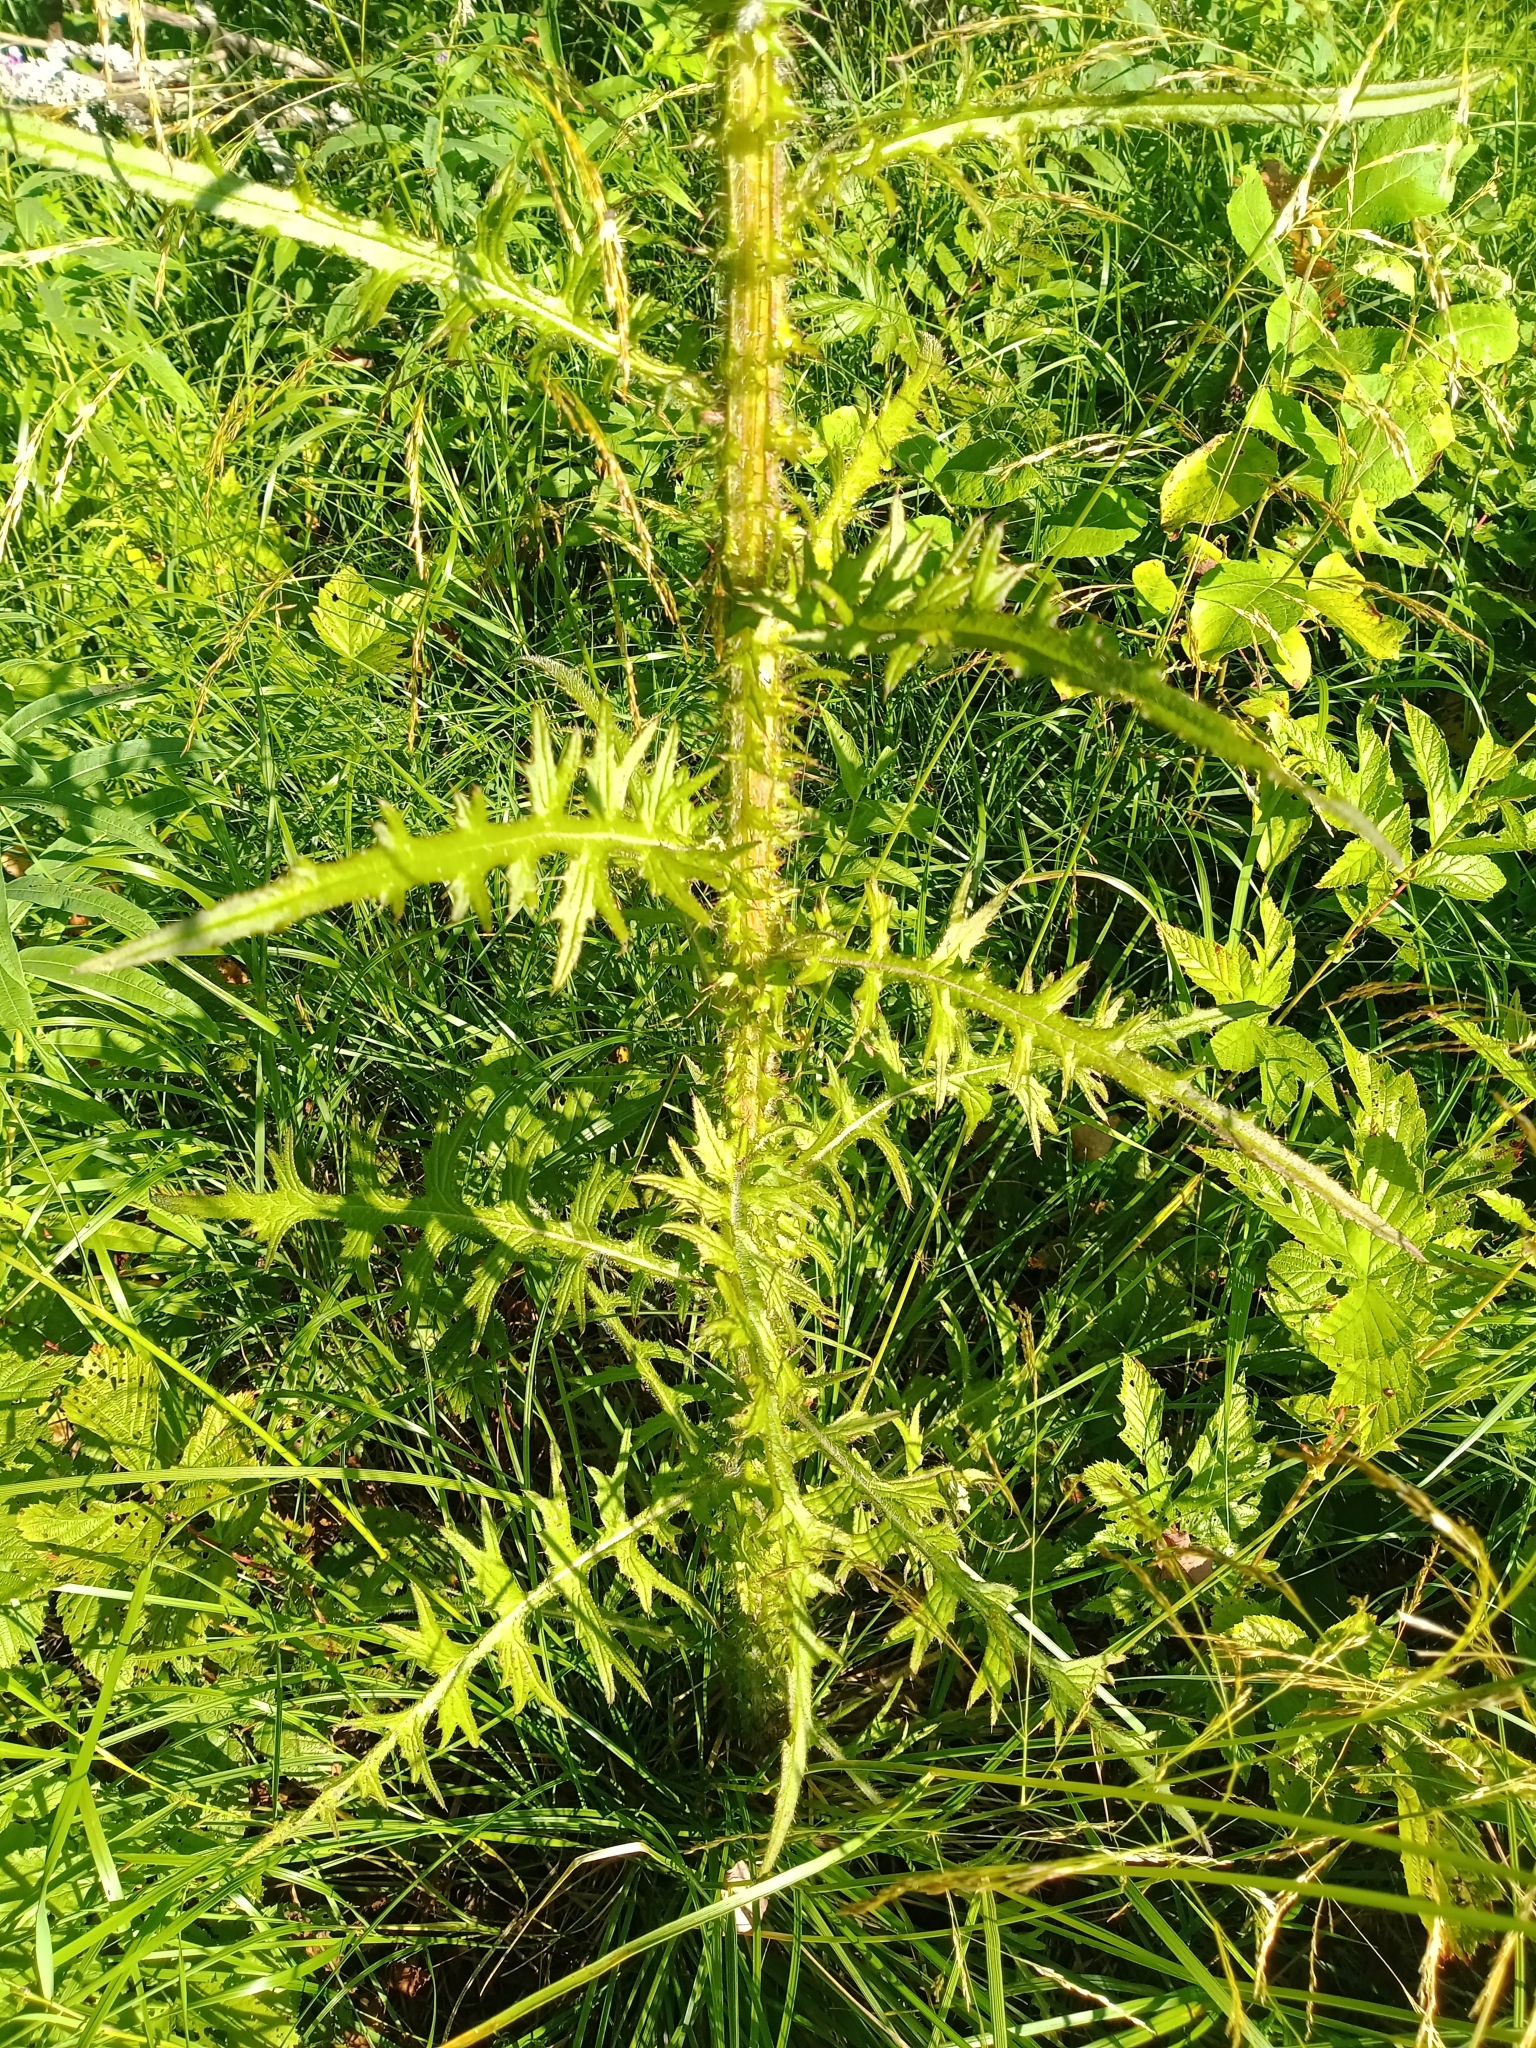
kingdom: Plantae
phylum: Tracheophyta
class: Magnoliopsida
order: Asterales
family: Asteraceae
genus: Cirsium
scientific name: Cirsium palustre
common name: Marsh thistle
